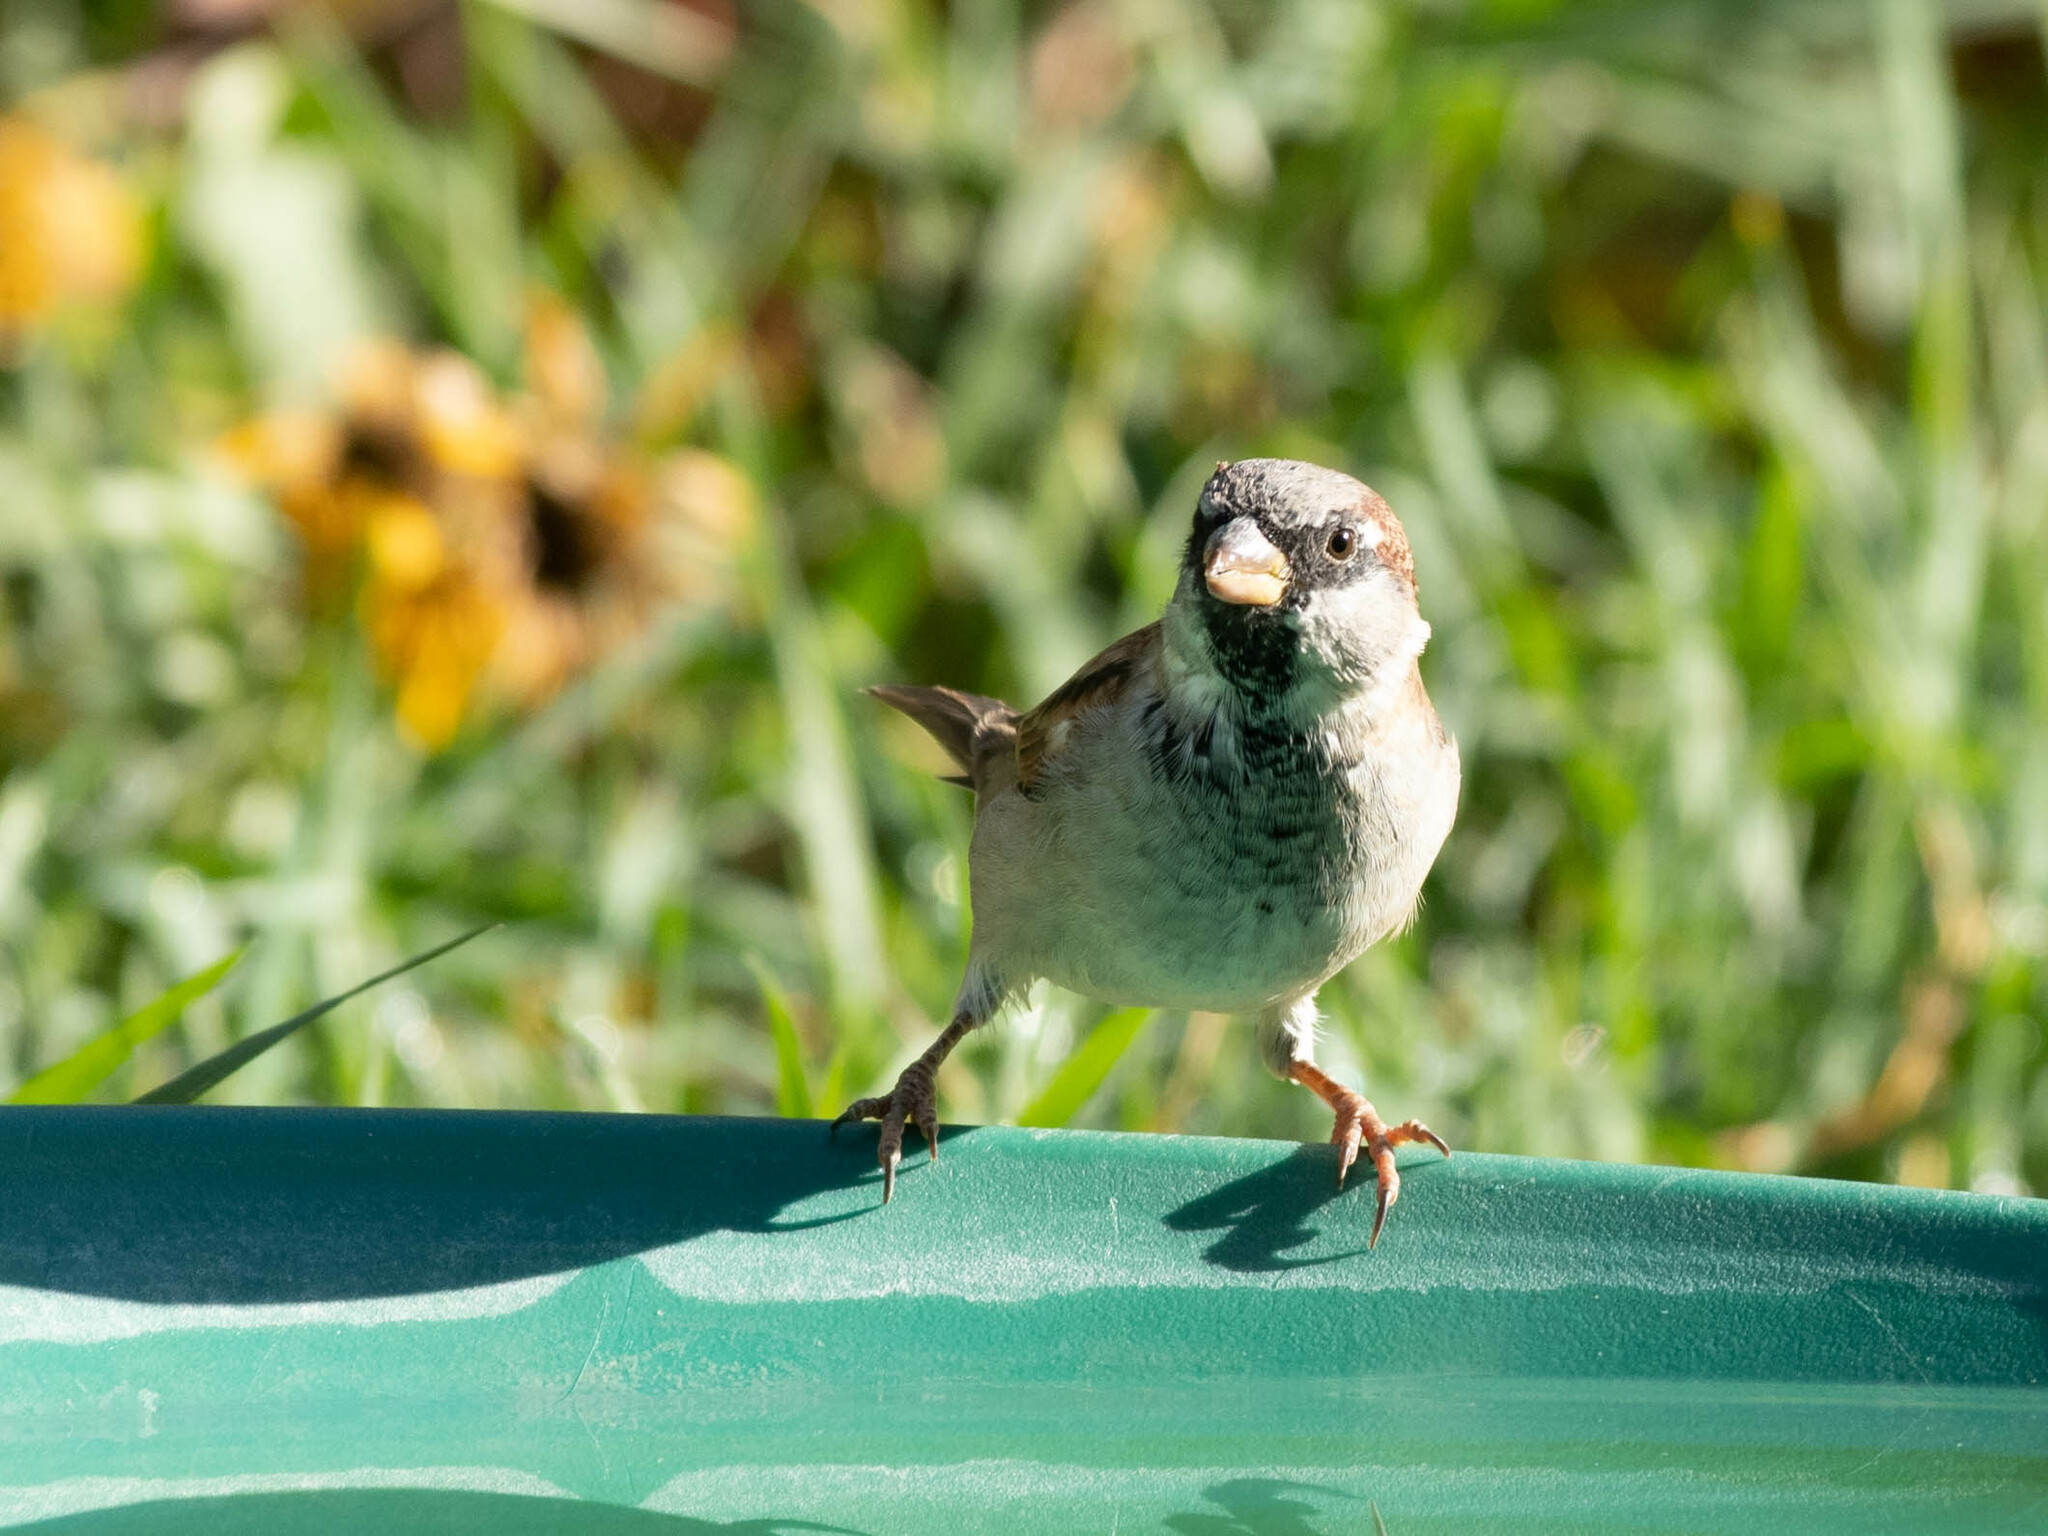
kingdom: Animalia
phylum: Chordata
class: Aves
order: Passeriformes
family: Passeridae
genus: Passer
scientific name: Passer domesticus
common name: House sparrow
